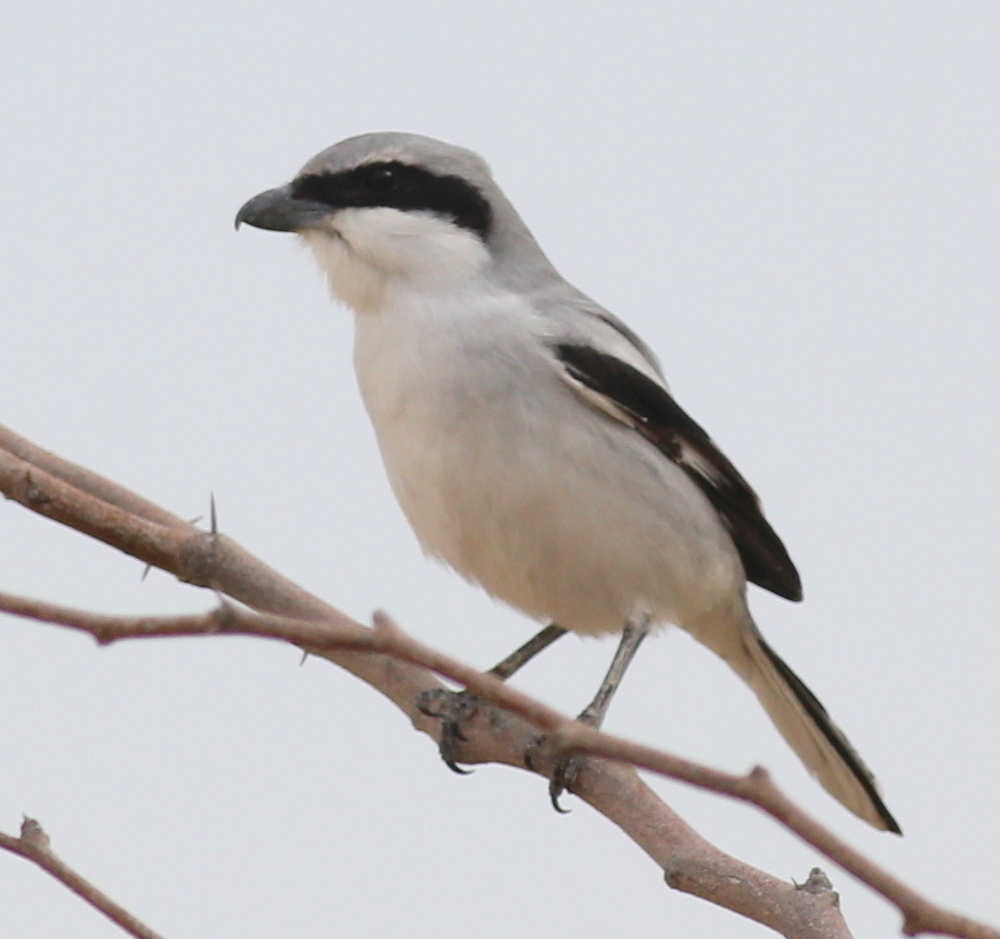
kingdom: Animalia
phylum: Chordata
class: Aves
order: Passeriformes
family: Laniidae
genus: Lanius
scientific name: Lanius excubitor
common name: Great grey shrike
